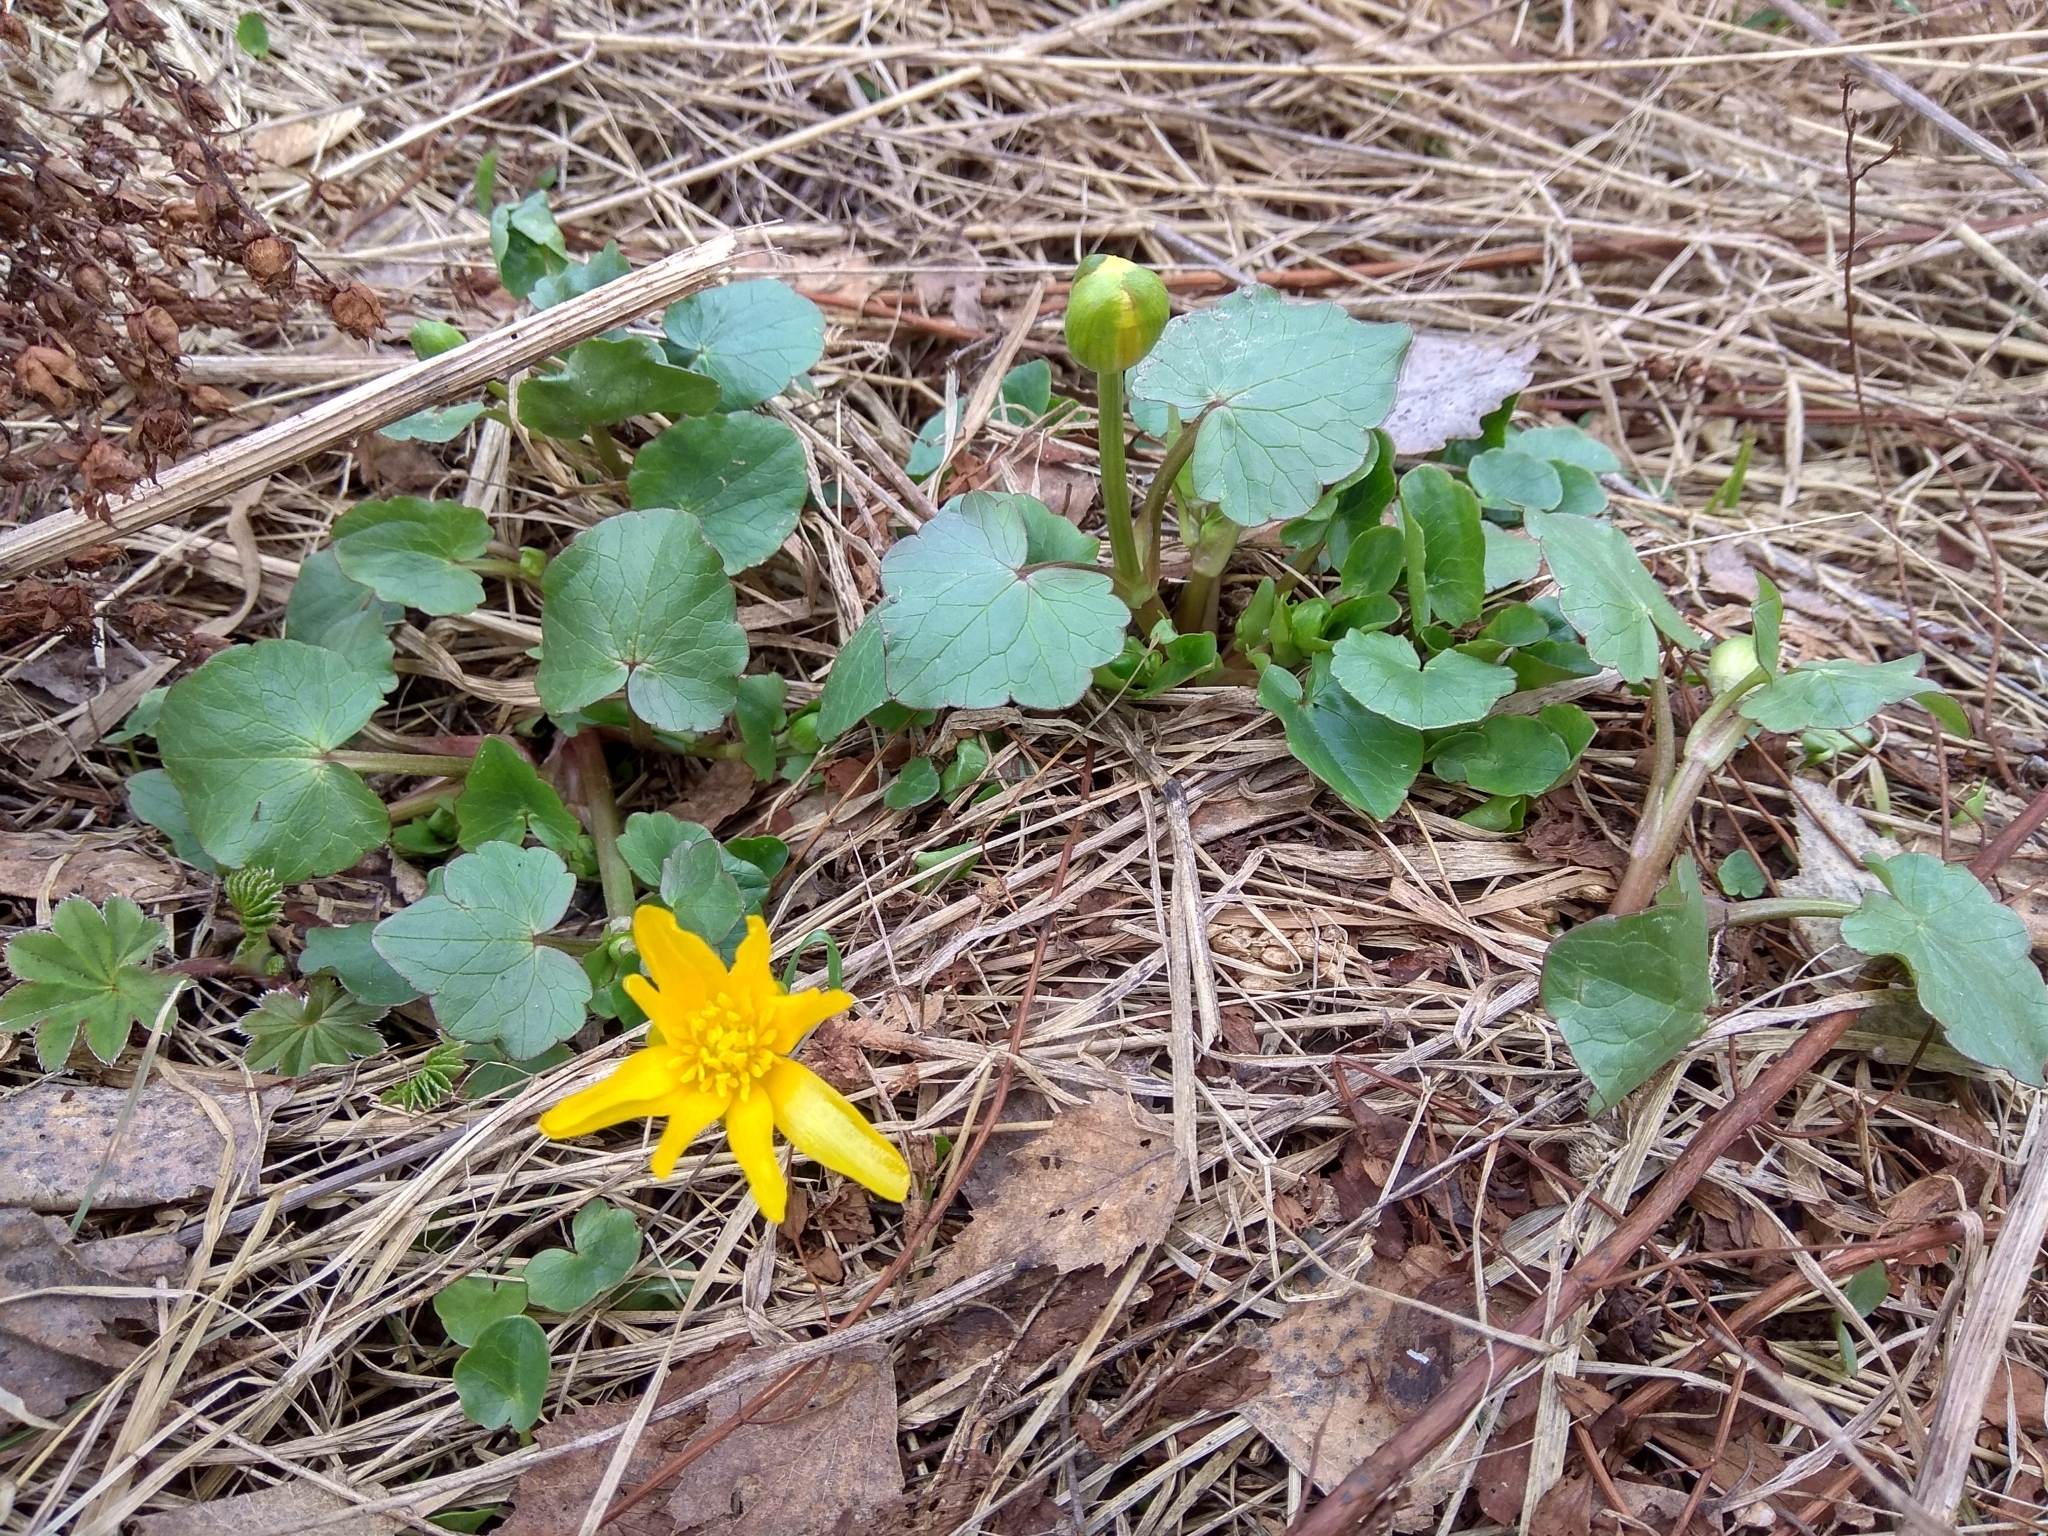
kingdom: Plantae
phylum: Tracheophyta
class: Magnoliopsida
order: Ranunculales
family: Ranunculaceae
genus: Ficaria
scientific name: Ficaria verna
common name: Lesser celandine
